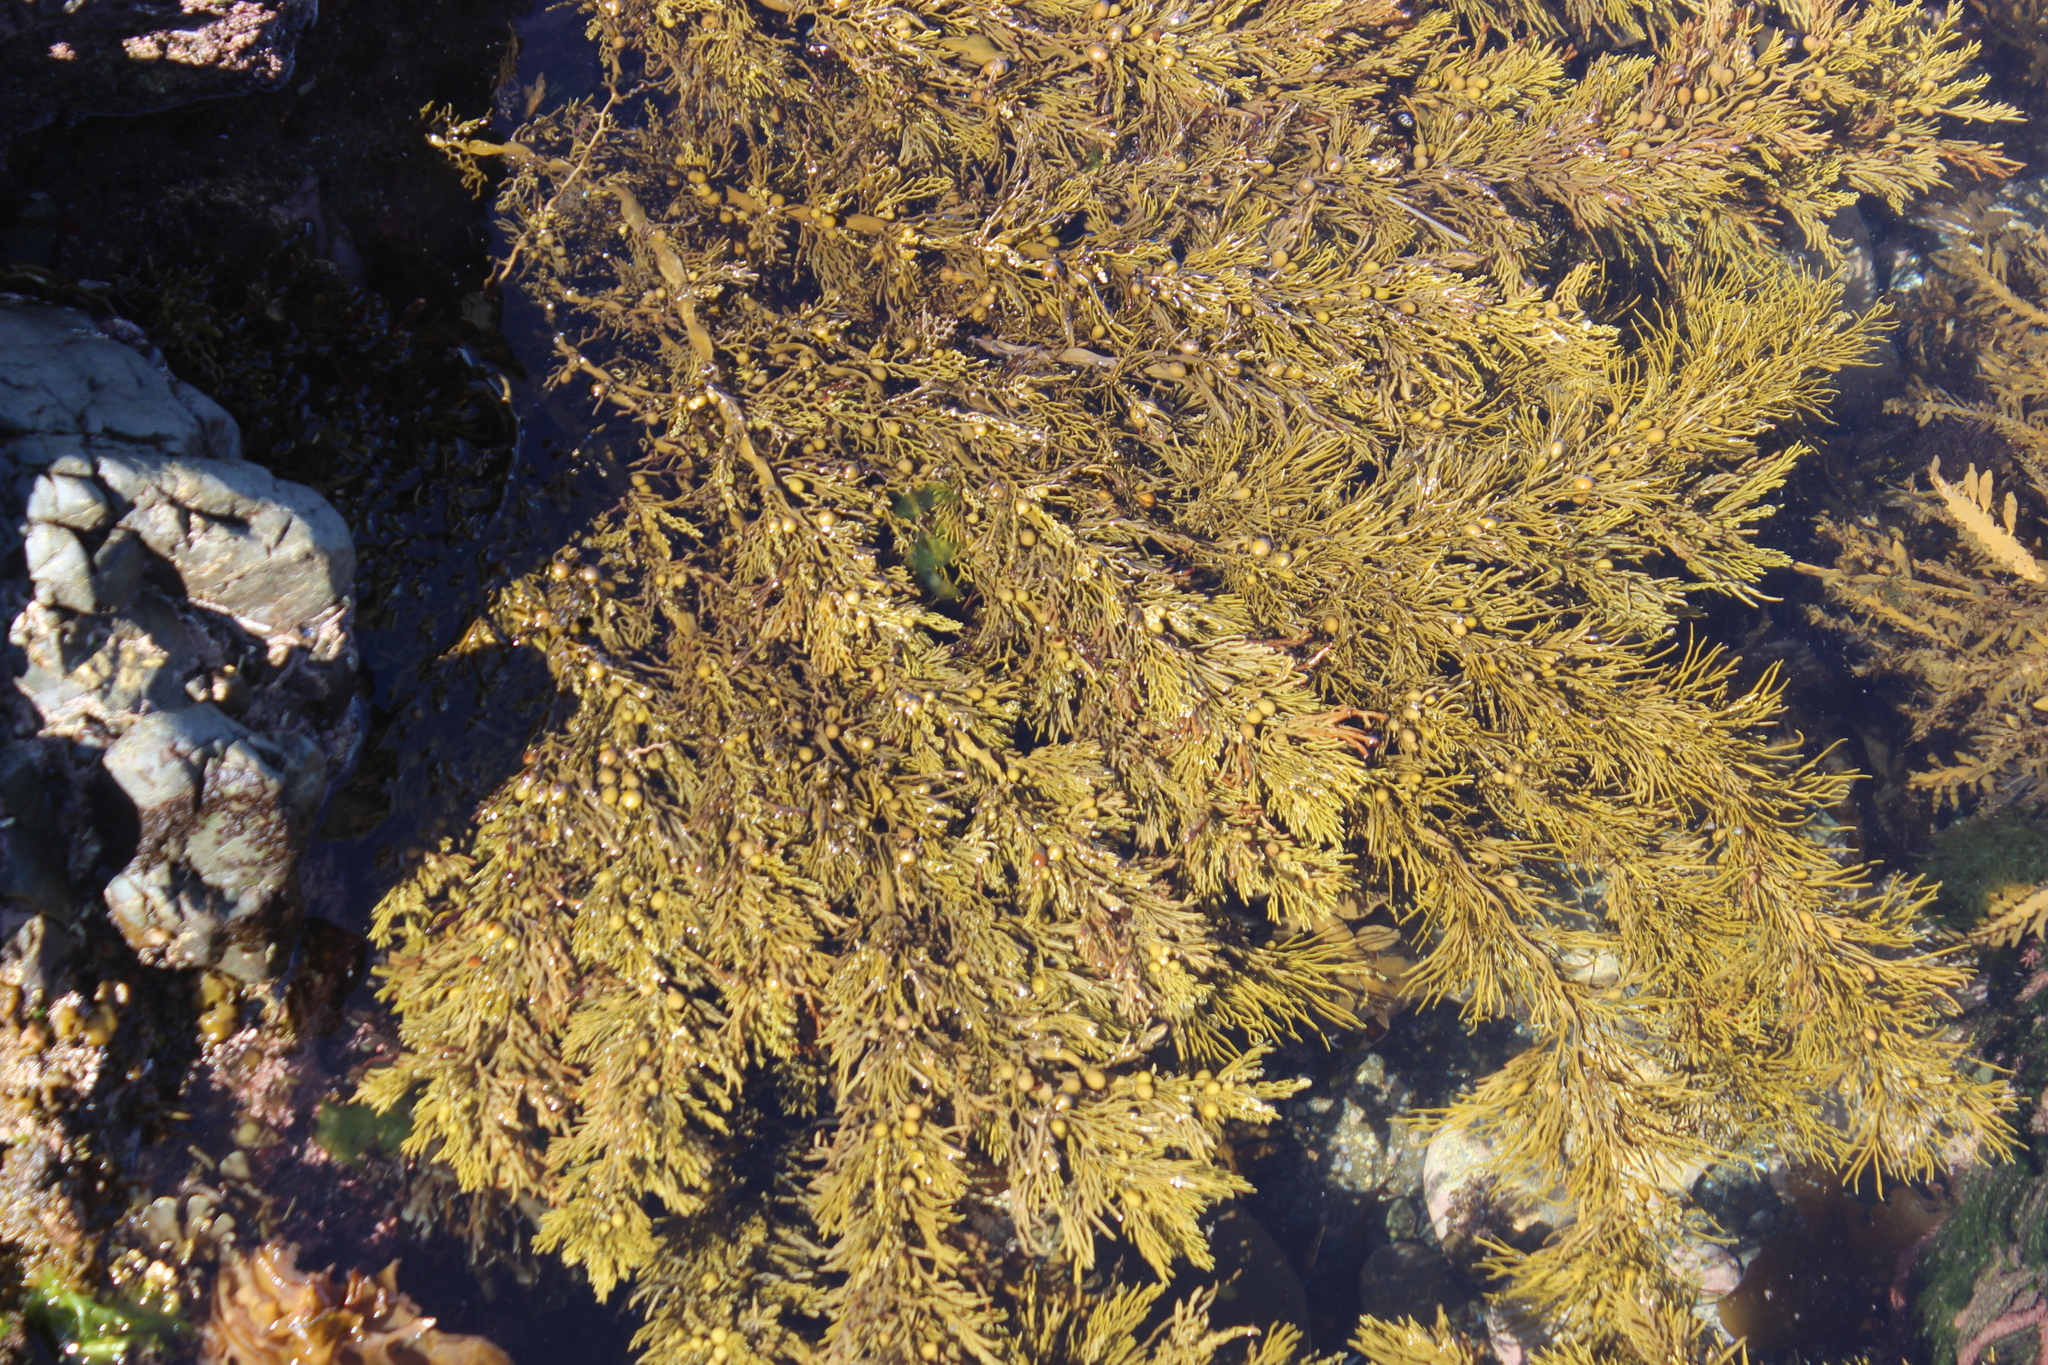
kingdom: Chromista
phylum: Ochrophyta
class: Phaeophyceae
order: Fucales
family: Sargassaceae
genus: Cystophora
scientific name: Cystophora retroflexa
